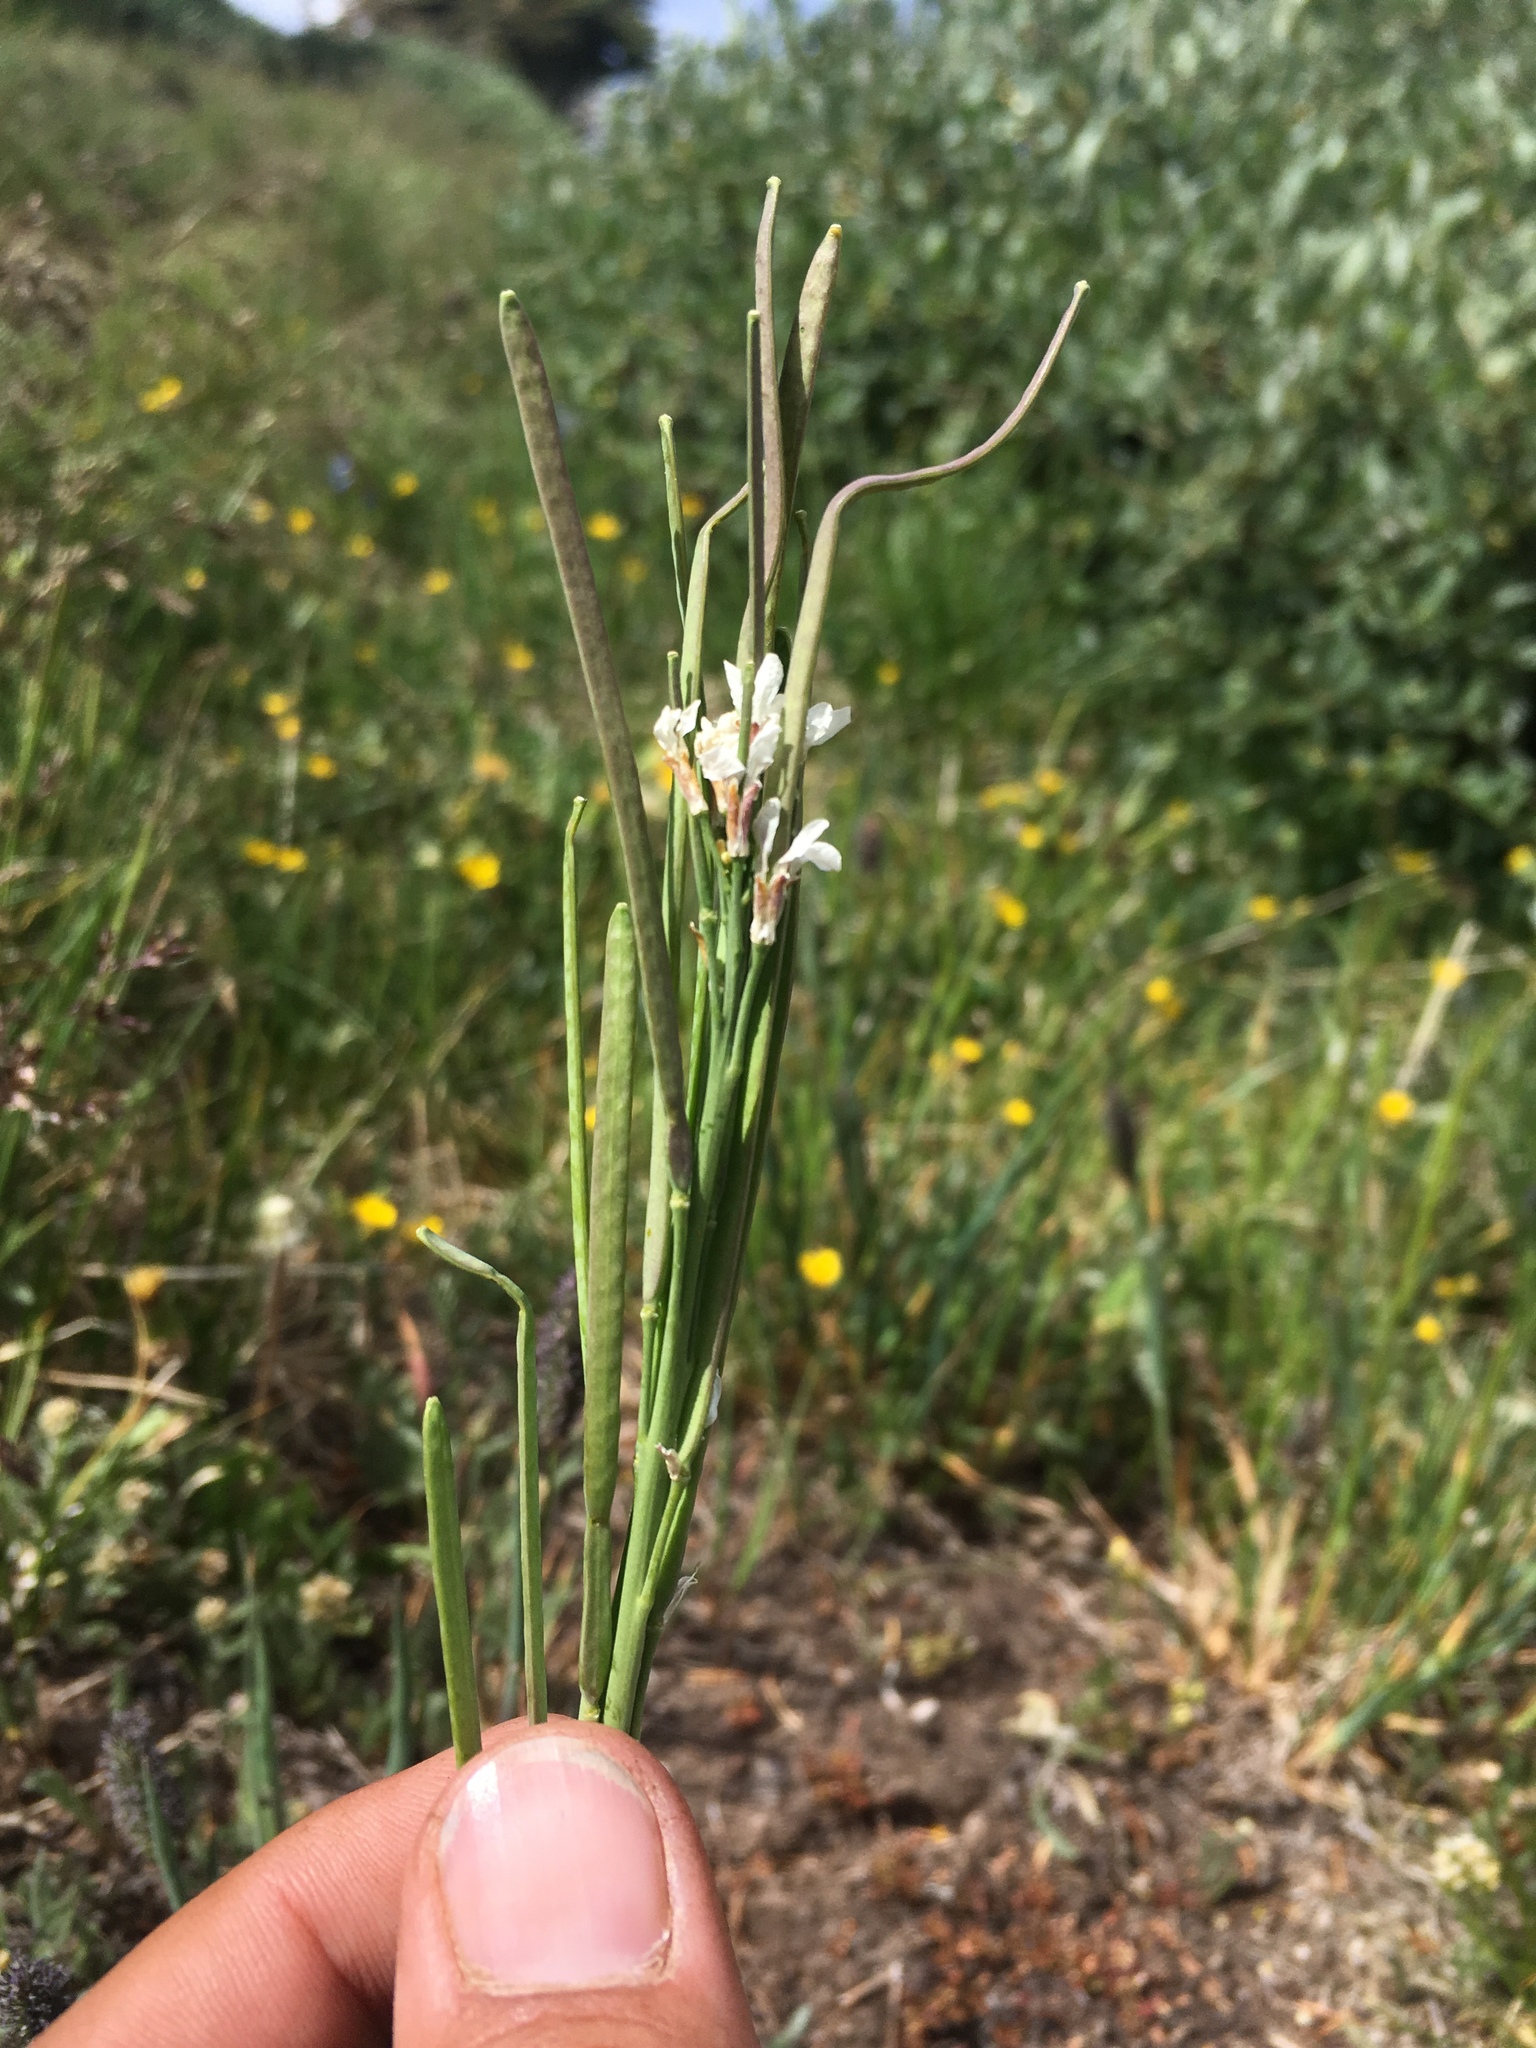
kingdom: Plantae
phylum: Tracheophyta
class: Magnoliopsida
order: Brassicales
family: Brassicaceae
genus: Boechera
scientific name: Boechera stricta
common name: Canadian rockcress
